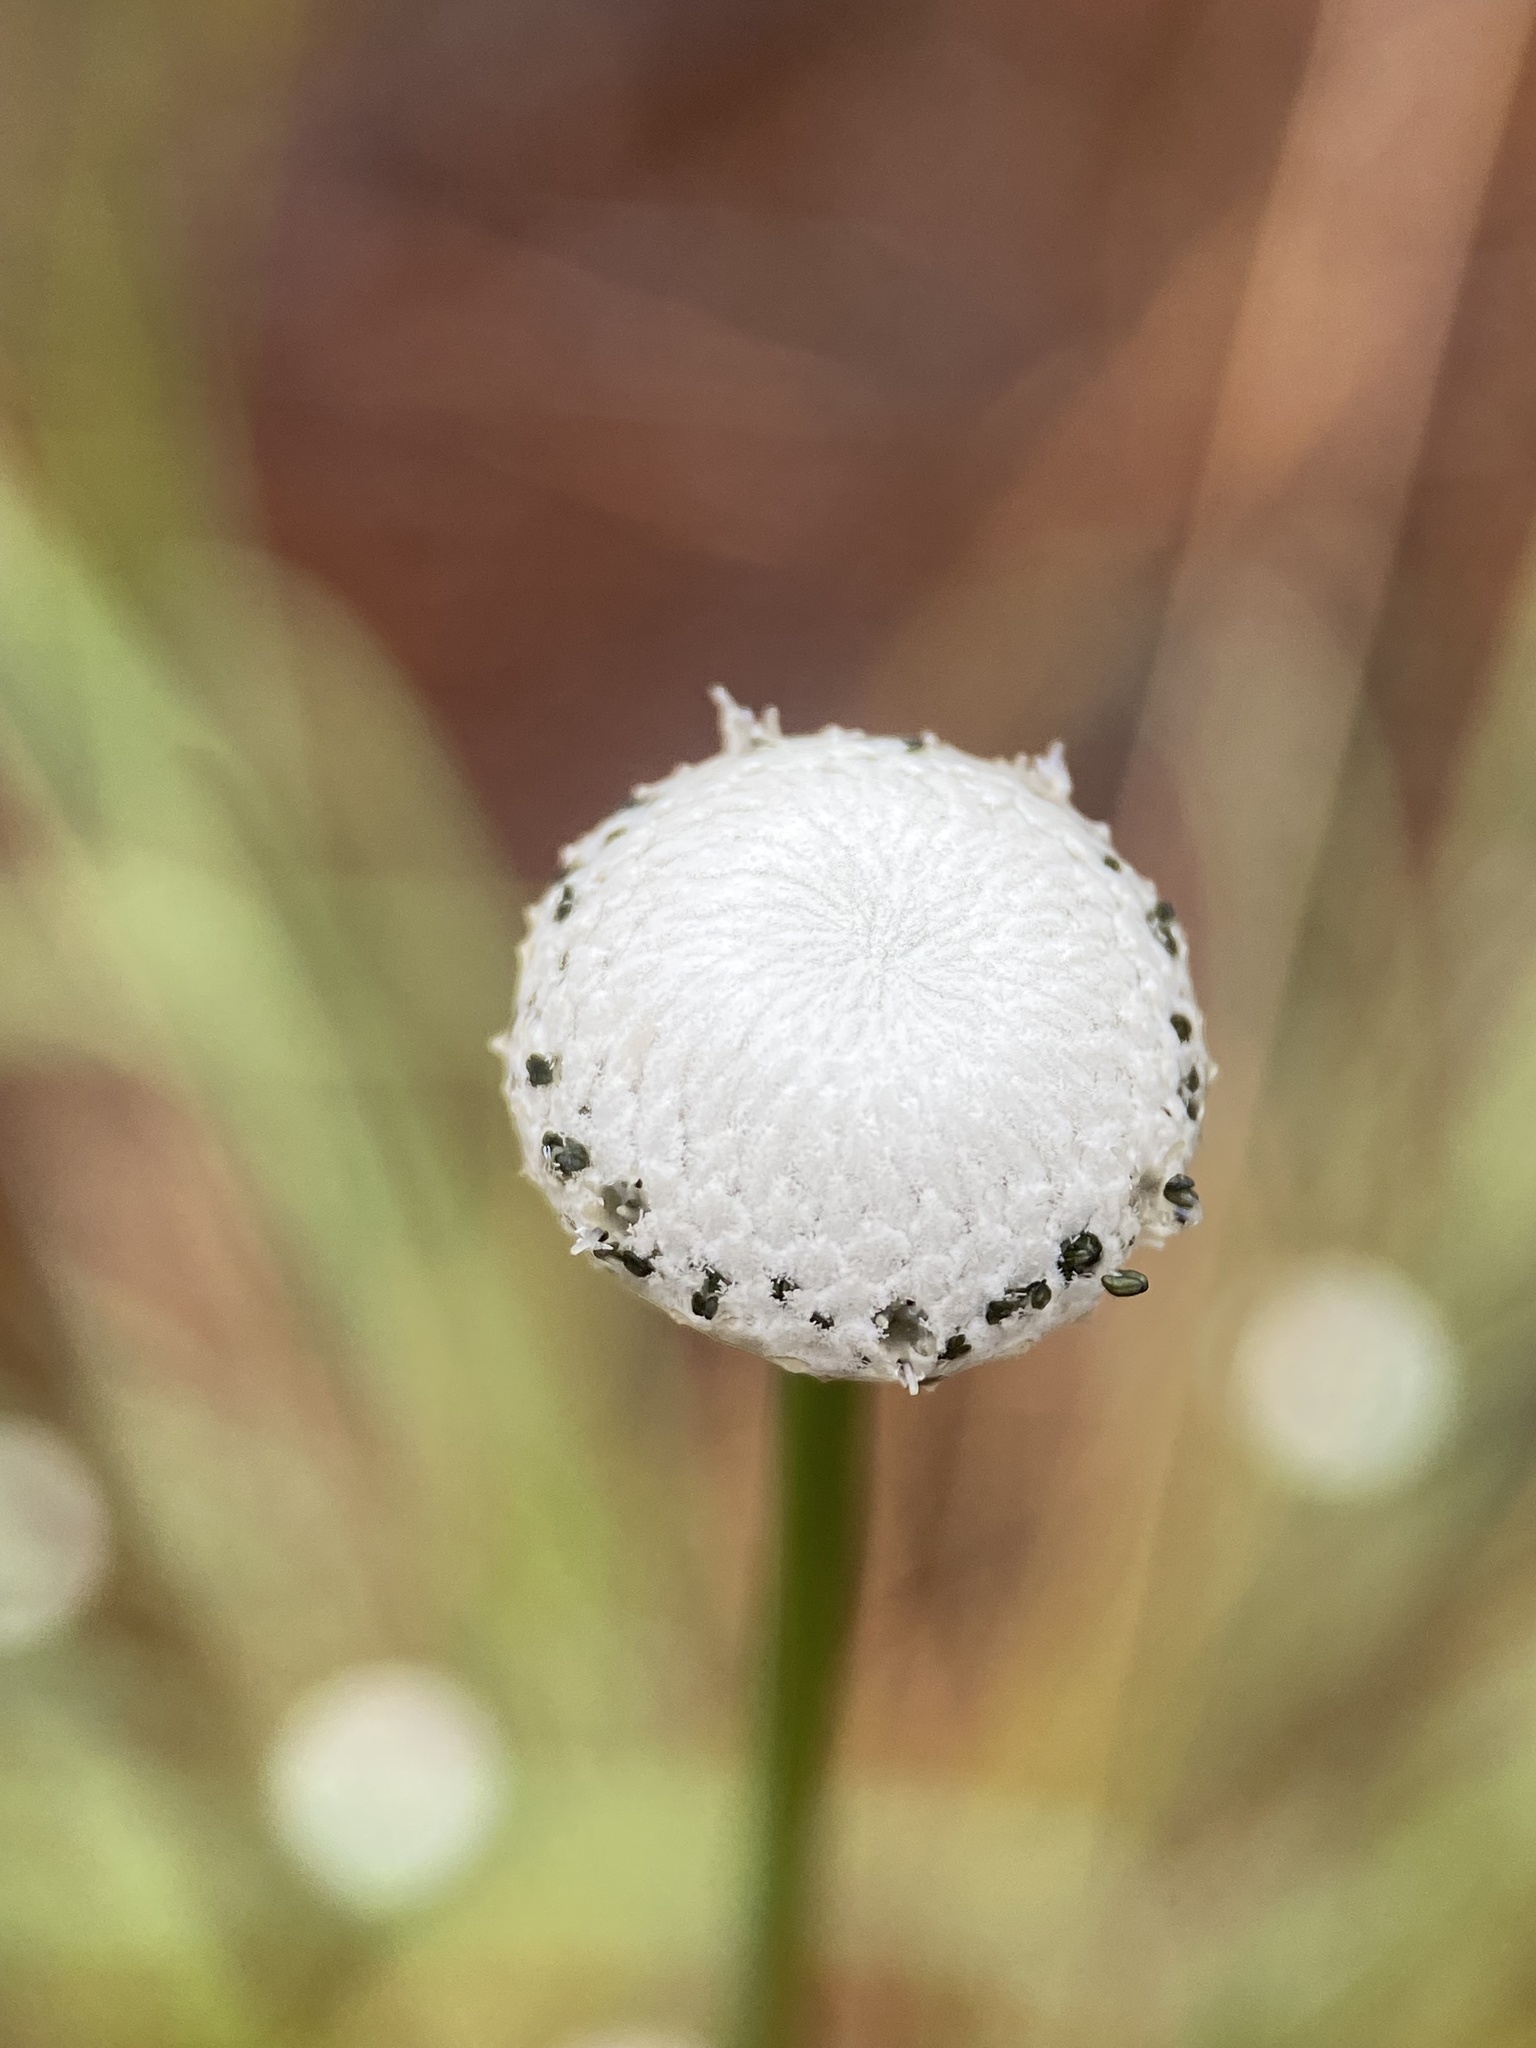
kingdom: Plantae
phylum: Tracheophyta
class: Liliopsida
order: Poales
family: Eriocaulaceae
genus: Eriocaulon
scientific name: Eriocaulon decangulare
